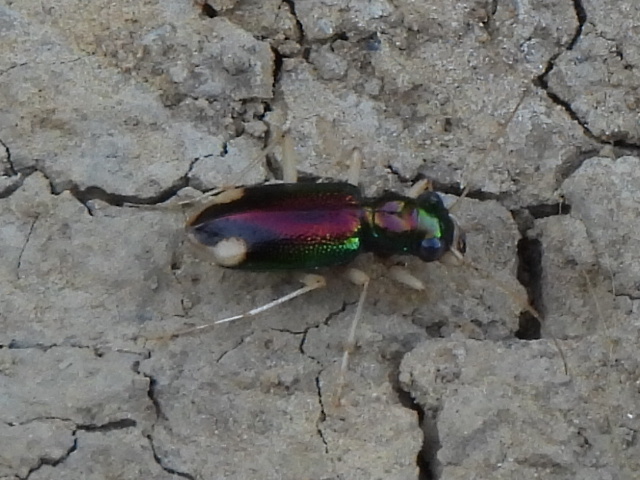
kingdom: Animalia
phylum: Arthropoda
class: Insecta
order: Coleoptera
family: Carabidae
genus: Tetracha
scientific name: Tetracha carolina
